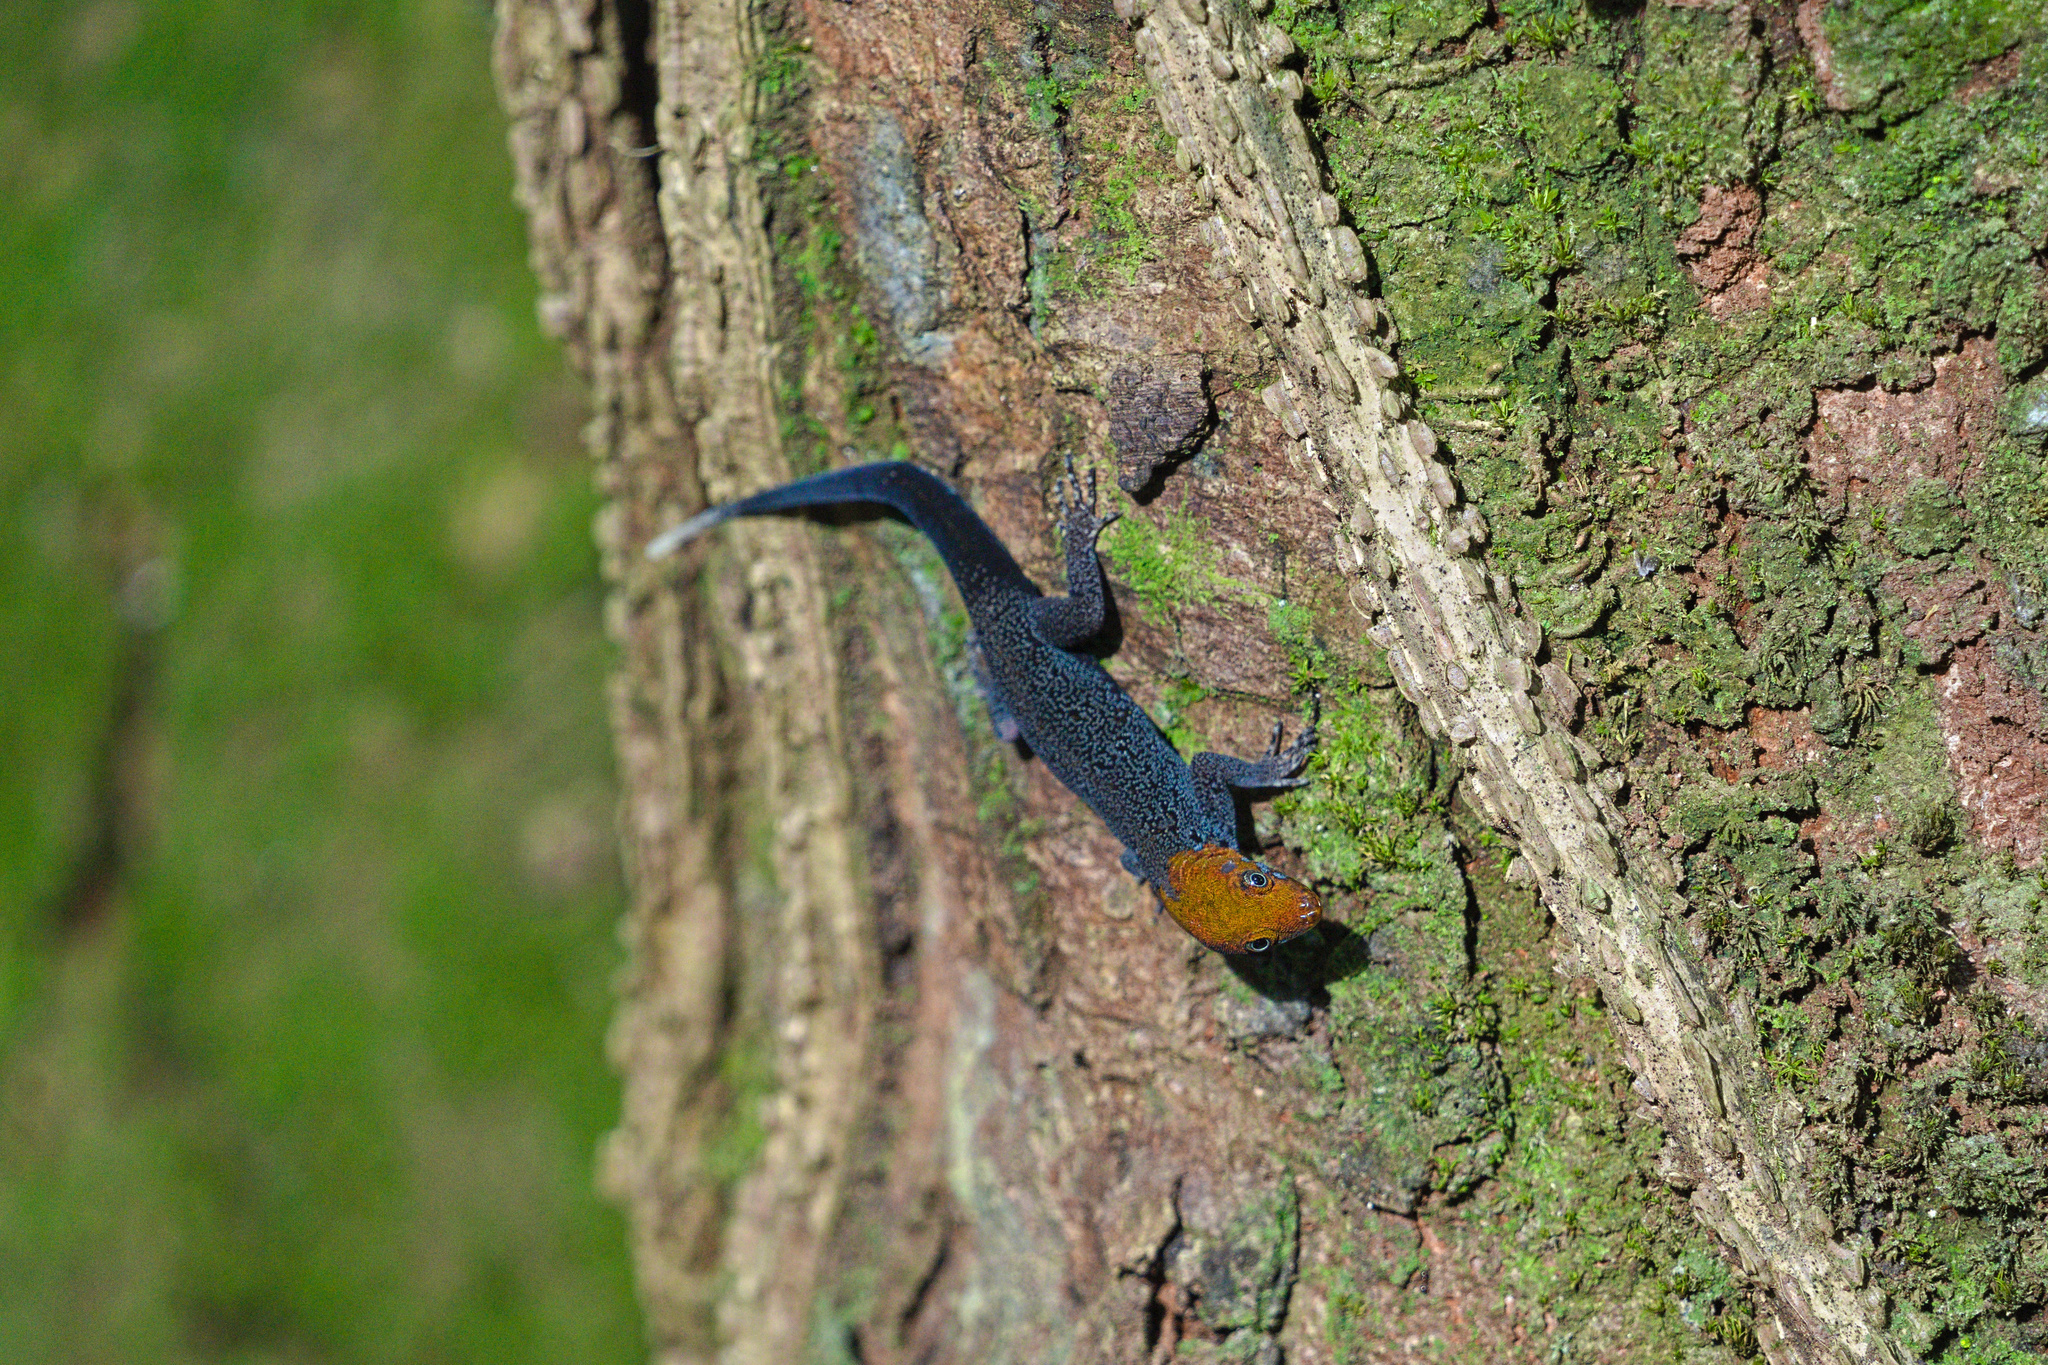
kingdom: Animalia
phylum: Chordata
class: Squamata
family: Sphaerodactylidae
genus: Gonatodes
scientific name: Gonatodes albogularis
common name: Yellow-headed gecko
